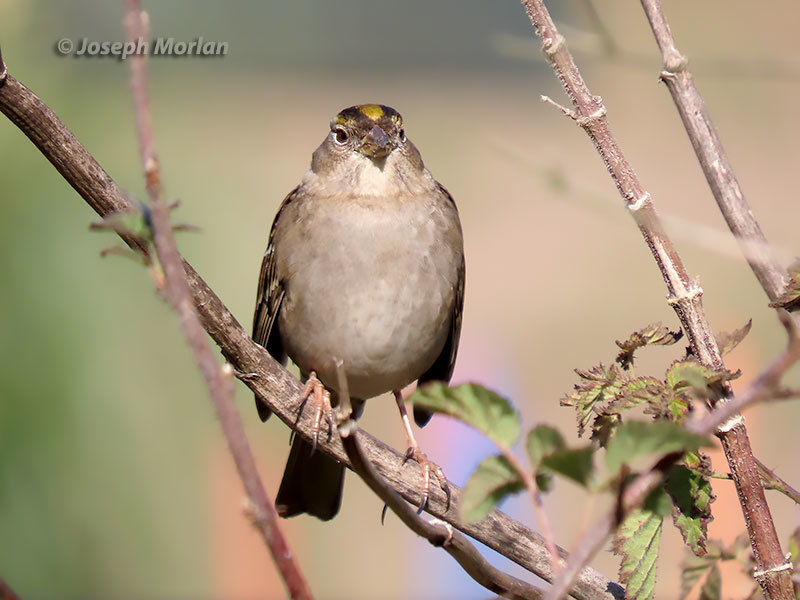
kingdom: Animalia
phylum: Chordata
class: Aves
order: Passeriformes
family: Passerellidae
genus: Zonotrichia
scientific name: Zonotrichia atricapilla
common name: Golden-crowned sparrow
